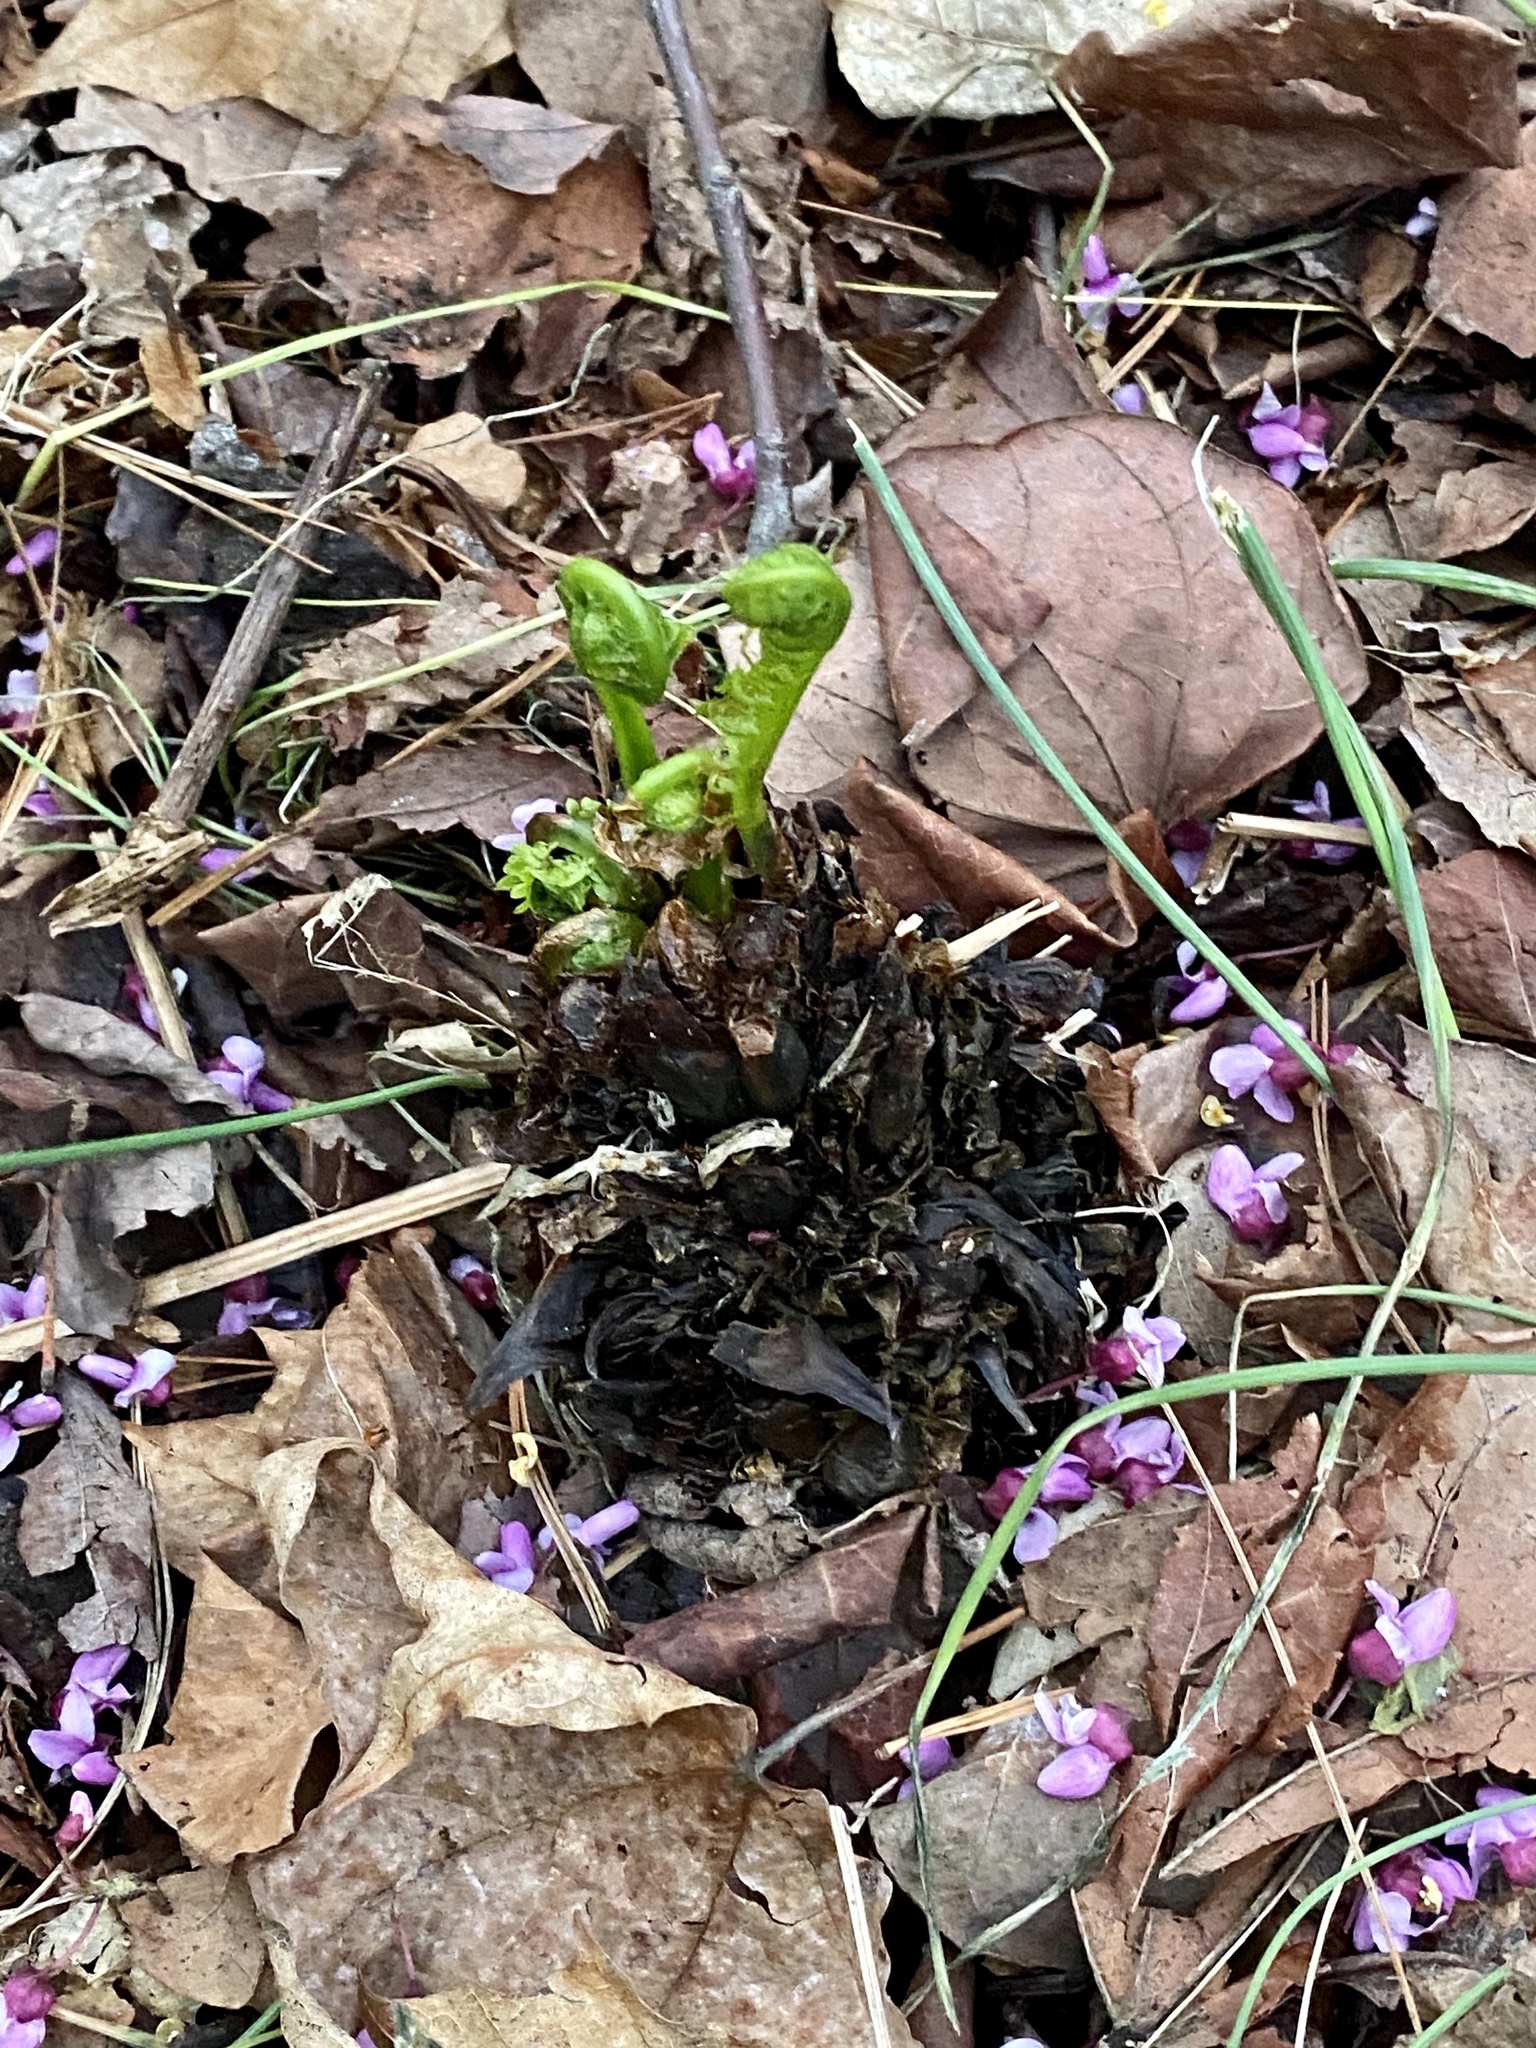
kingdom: Plantae
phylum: Tracheophyta
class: Polypodiopsida
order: Polypodiales
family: Onocleaceae
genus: Matteuccia
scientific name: Matteuccia struthiopteris
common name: Ostrich fern
